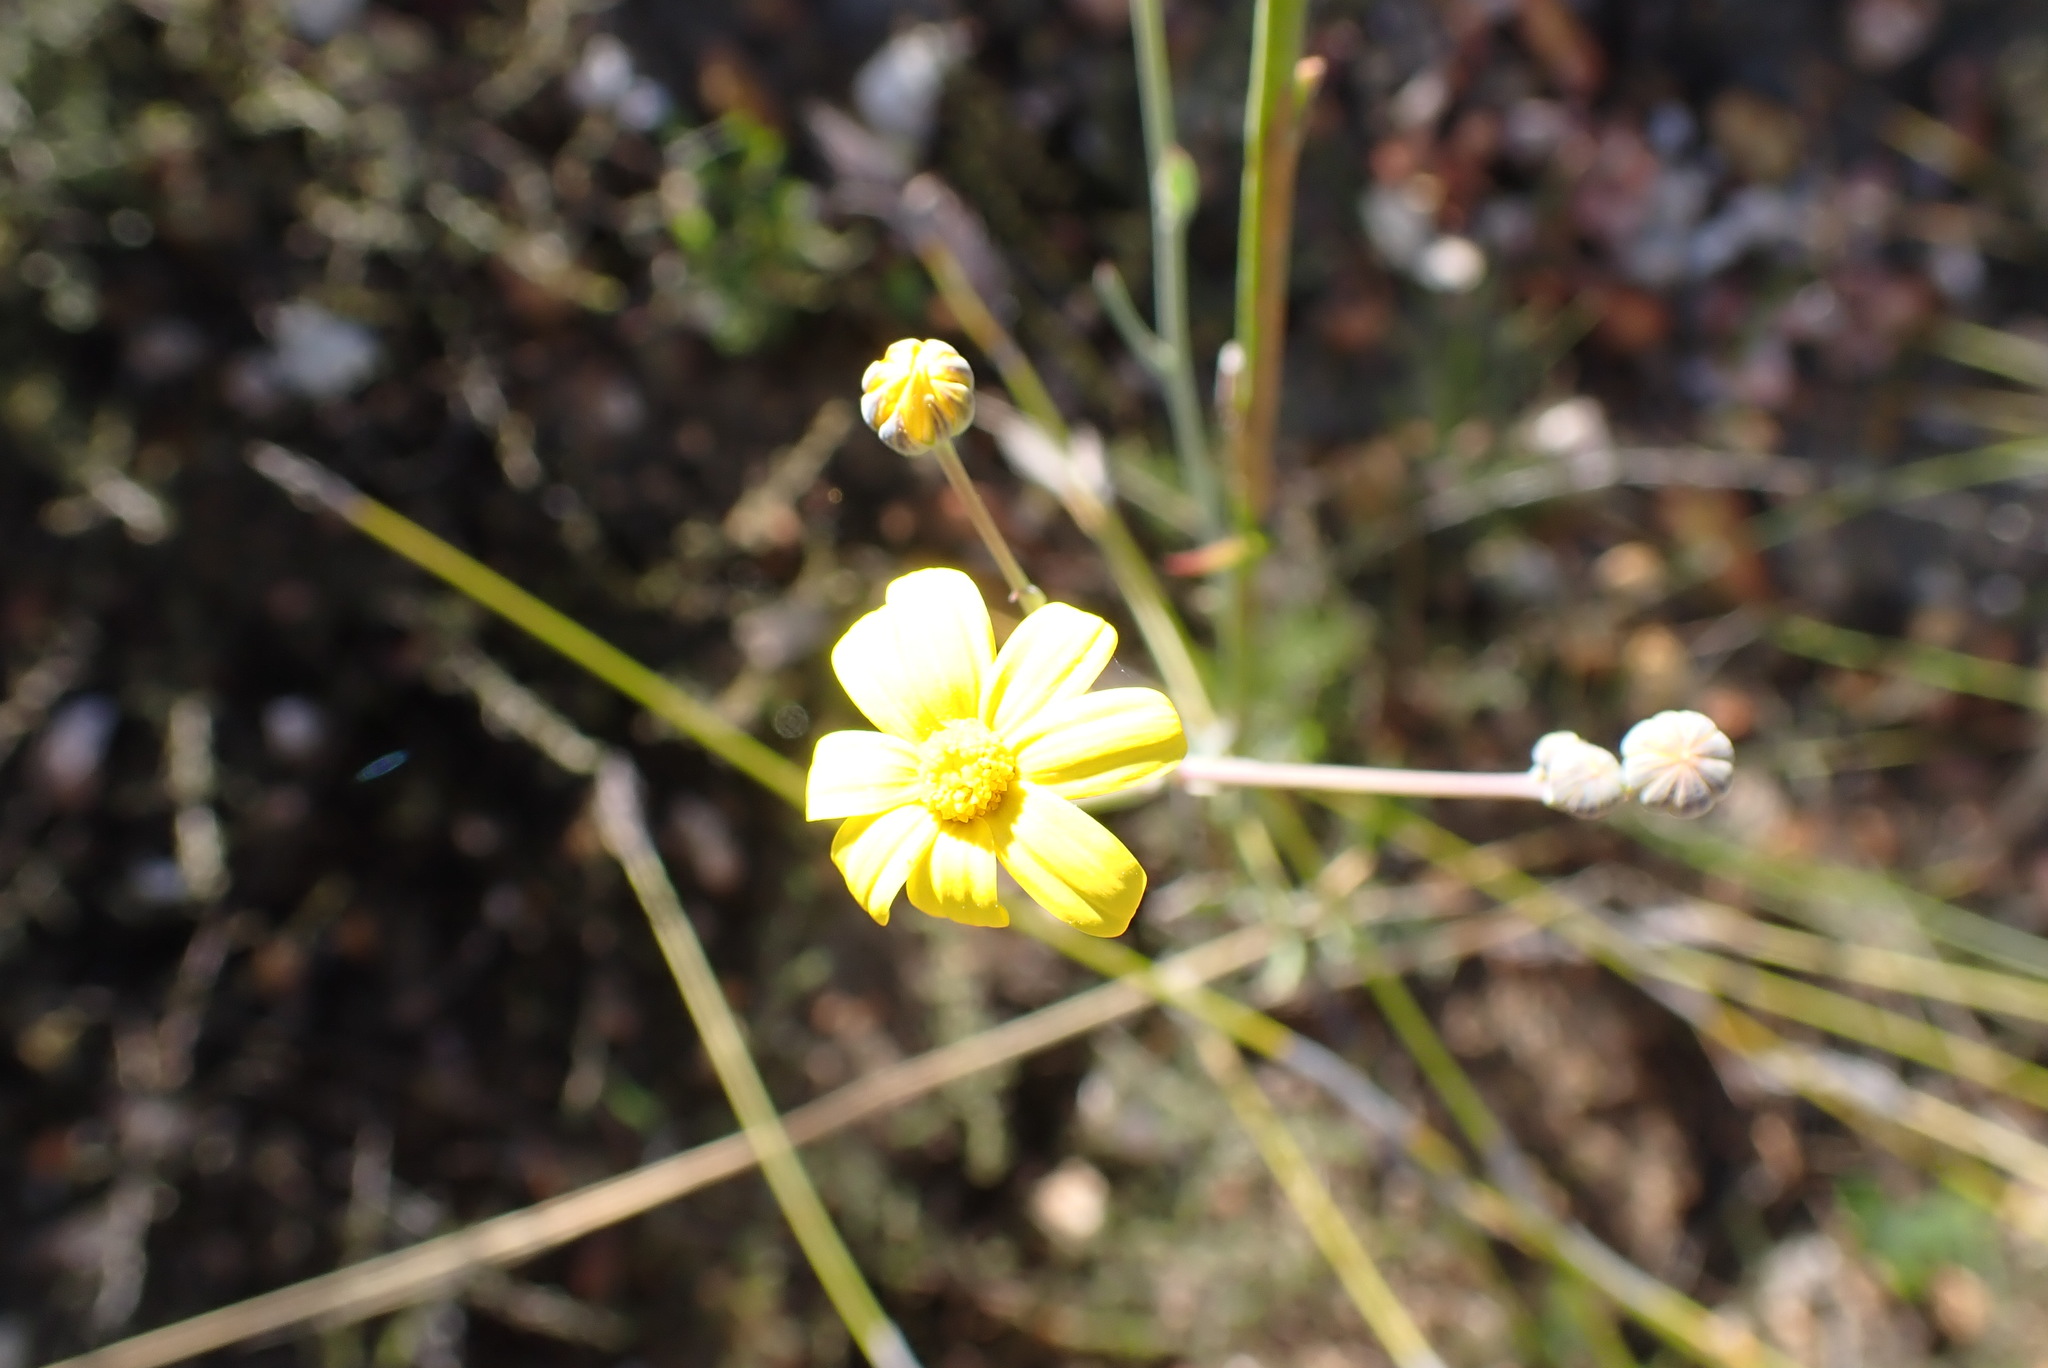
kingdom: Plantae
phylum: Tracheophyta
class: Magnoliopsida
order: Asterales
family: Asteraceae
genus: Othonna
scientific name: Othonna quinquedentata
